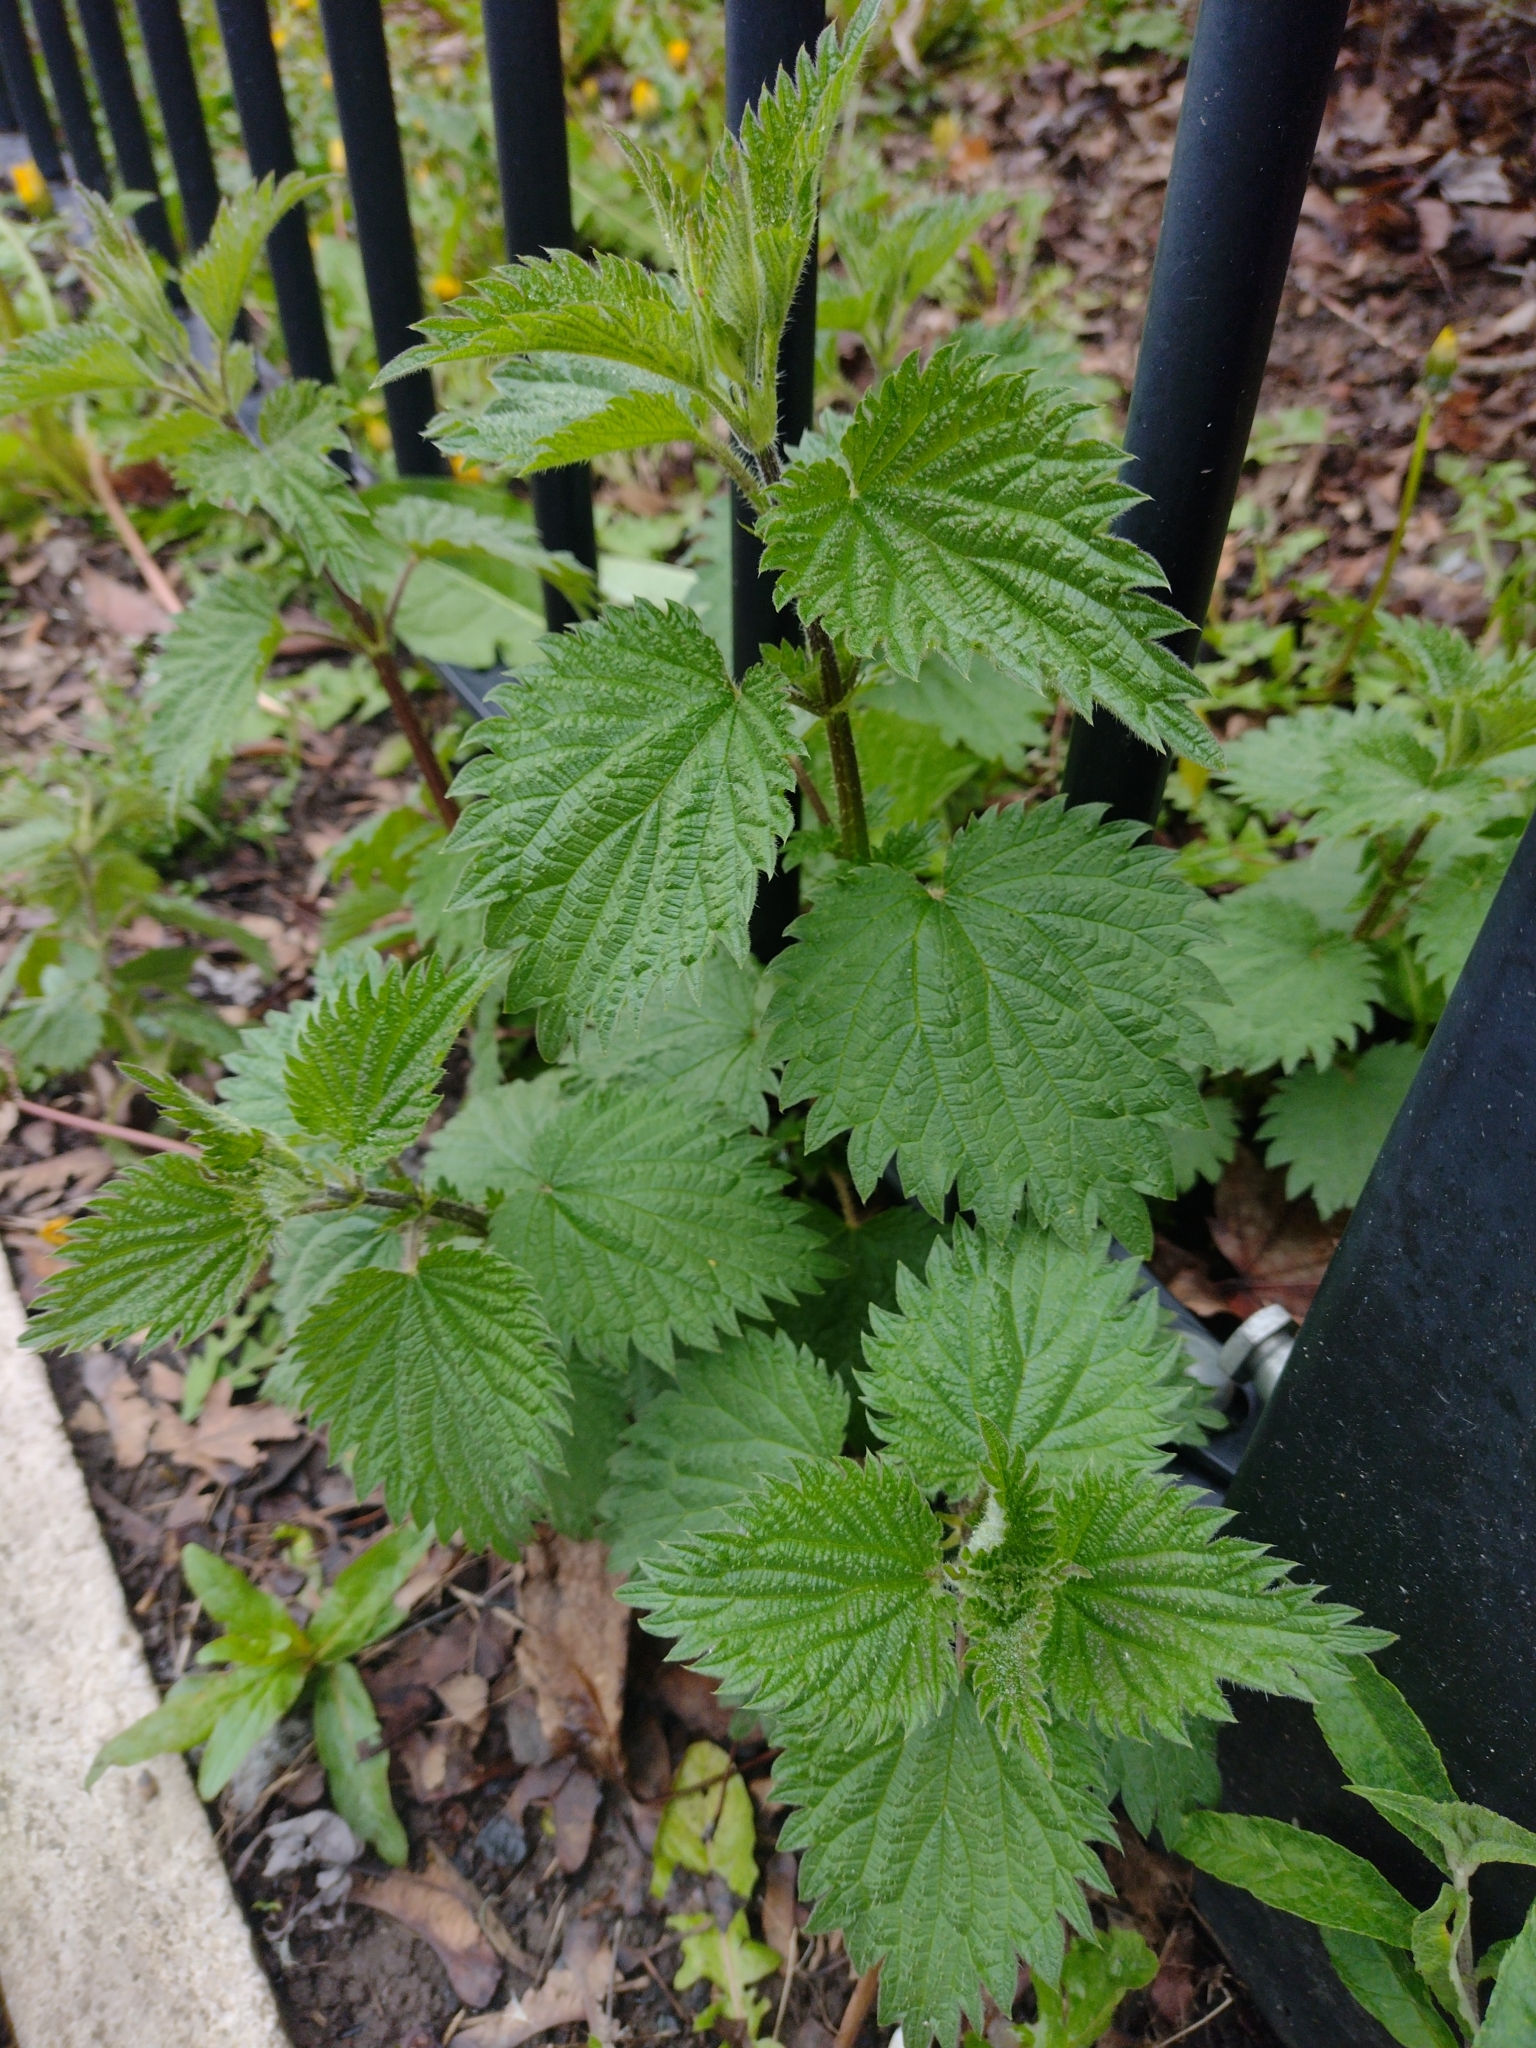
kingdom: Plantae
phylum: Tracheophyta
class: Magnoliopsida
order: Rosales
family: Urticaceae
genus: Urtica
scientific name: Urtica dioica
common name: Common nettle
